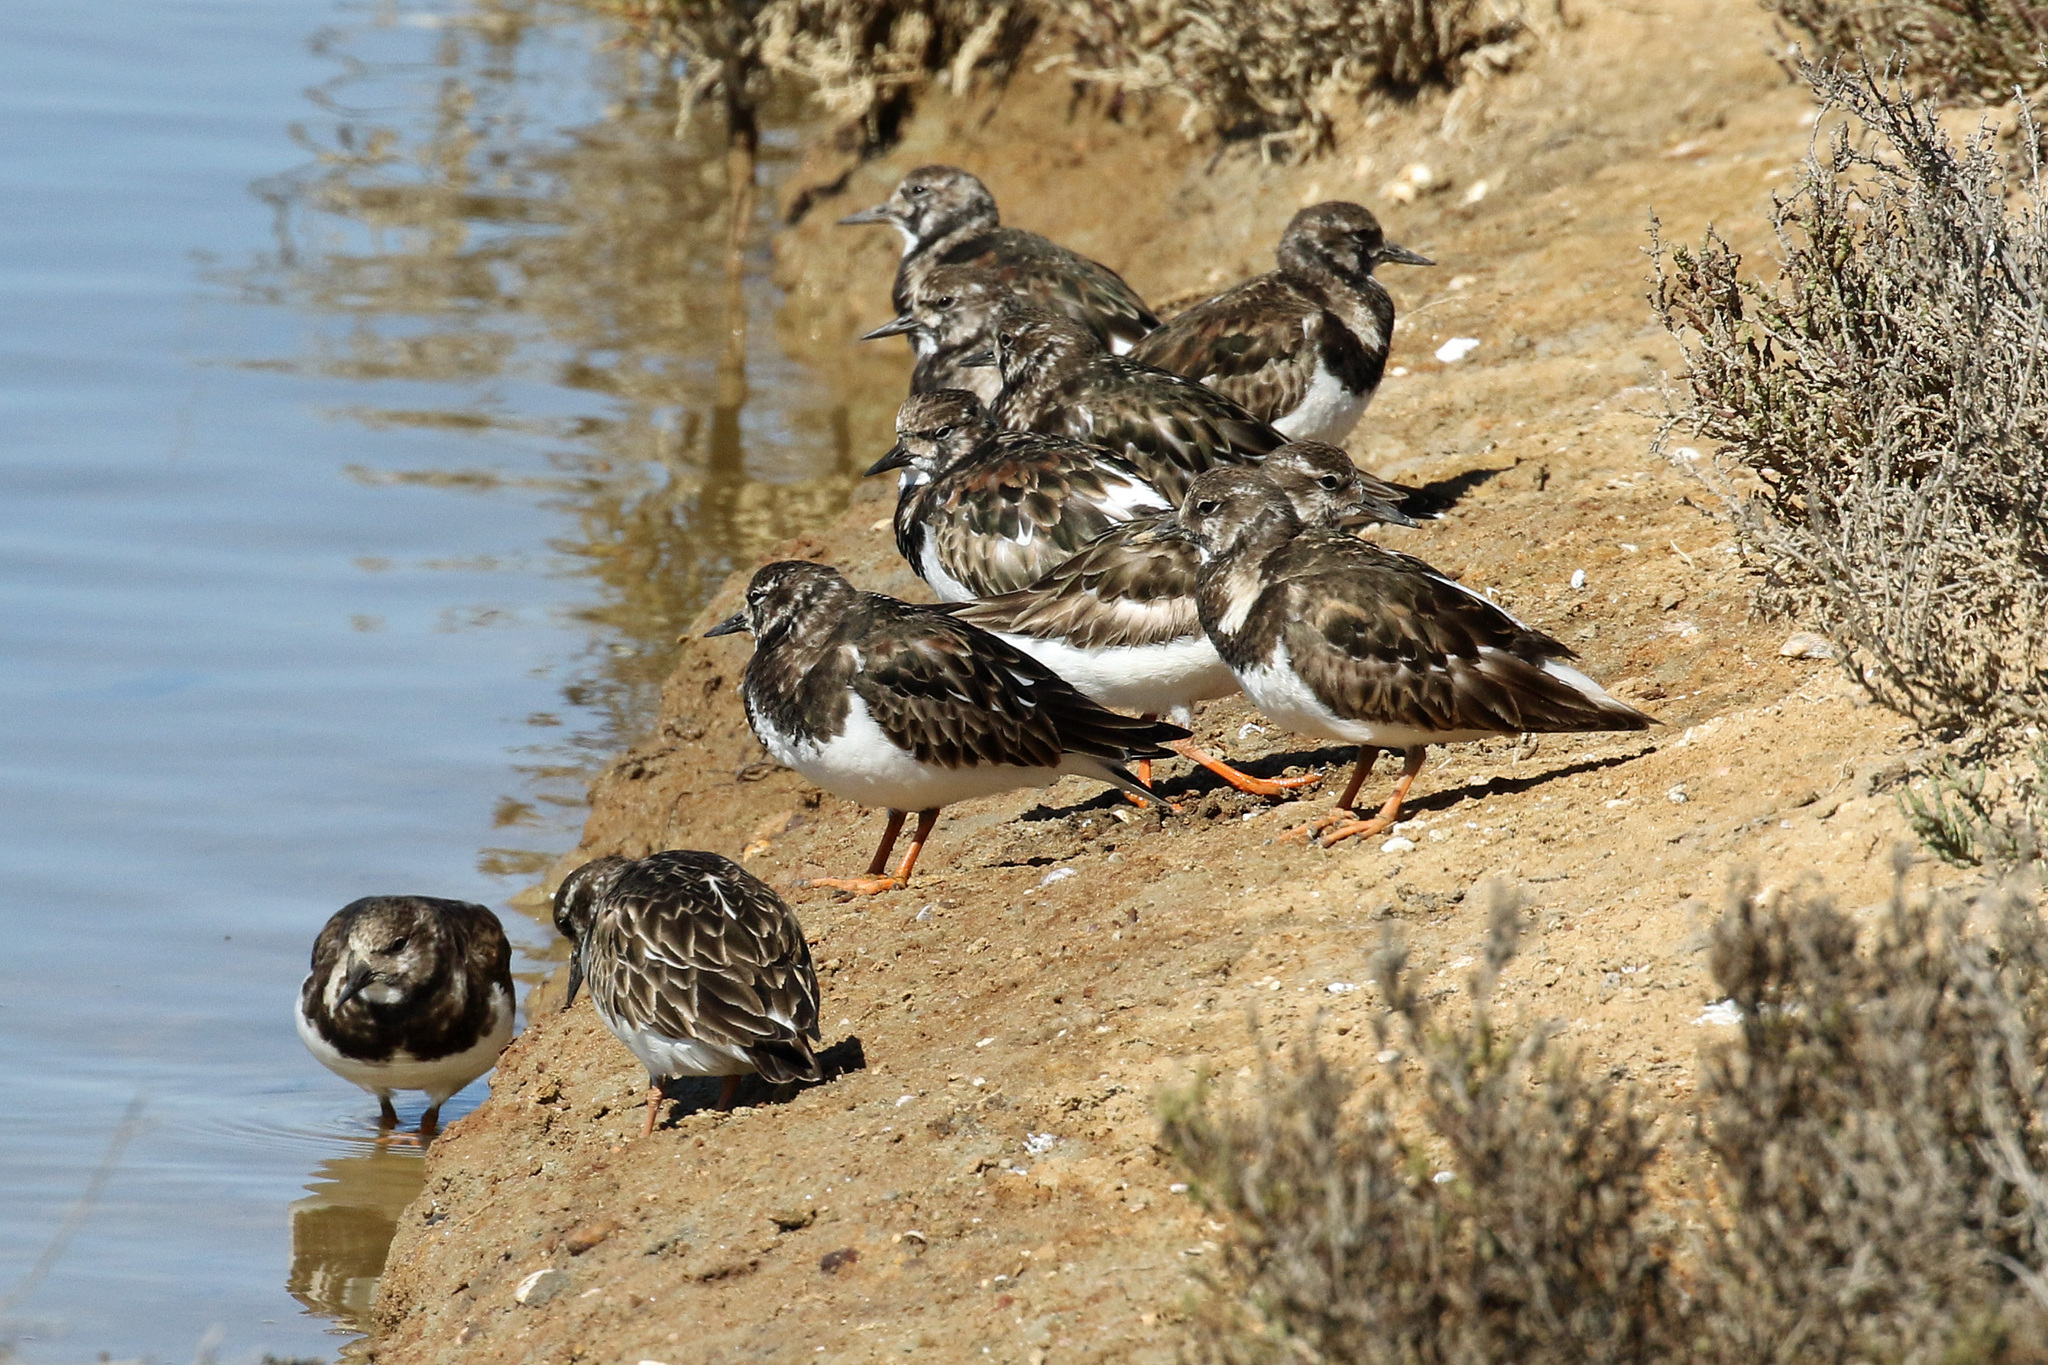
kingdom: Animalia
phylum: Chordata
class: Aves
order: Charadriiformes
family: Scolopacidae
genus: Arenaria
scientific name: Arenaria interpres
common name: Ruddy turnstone
